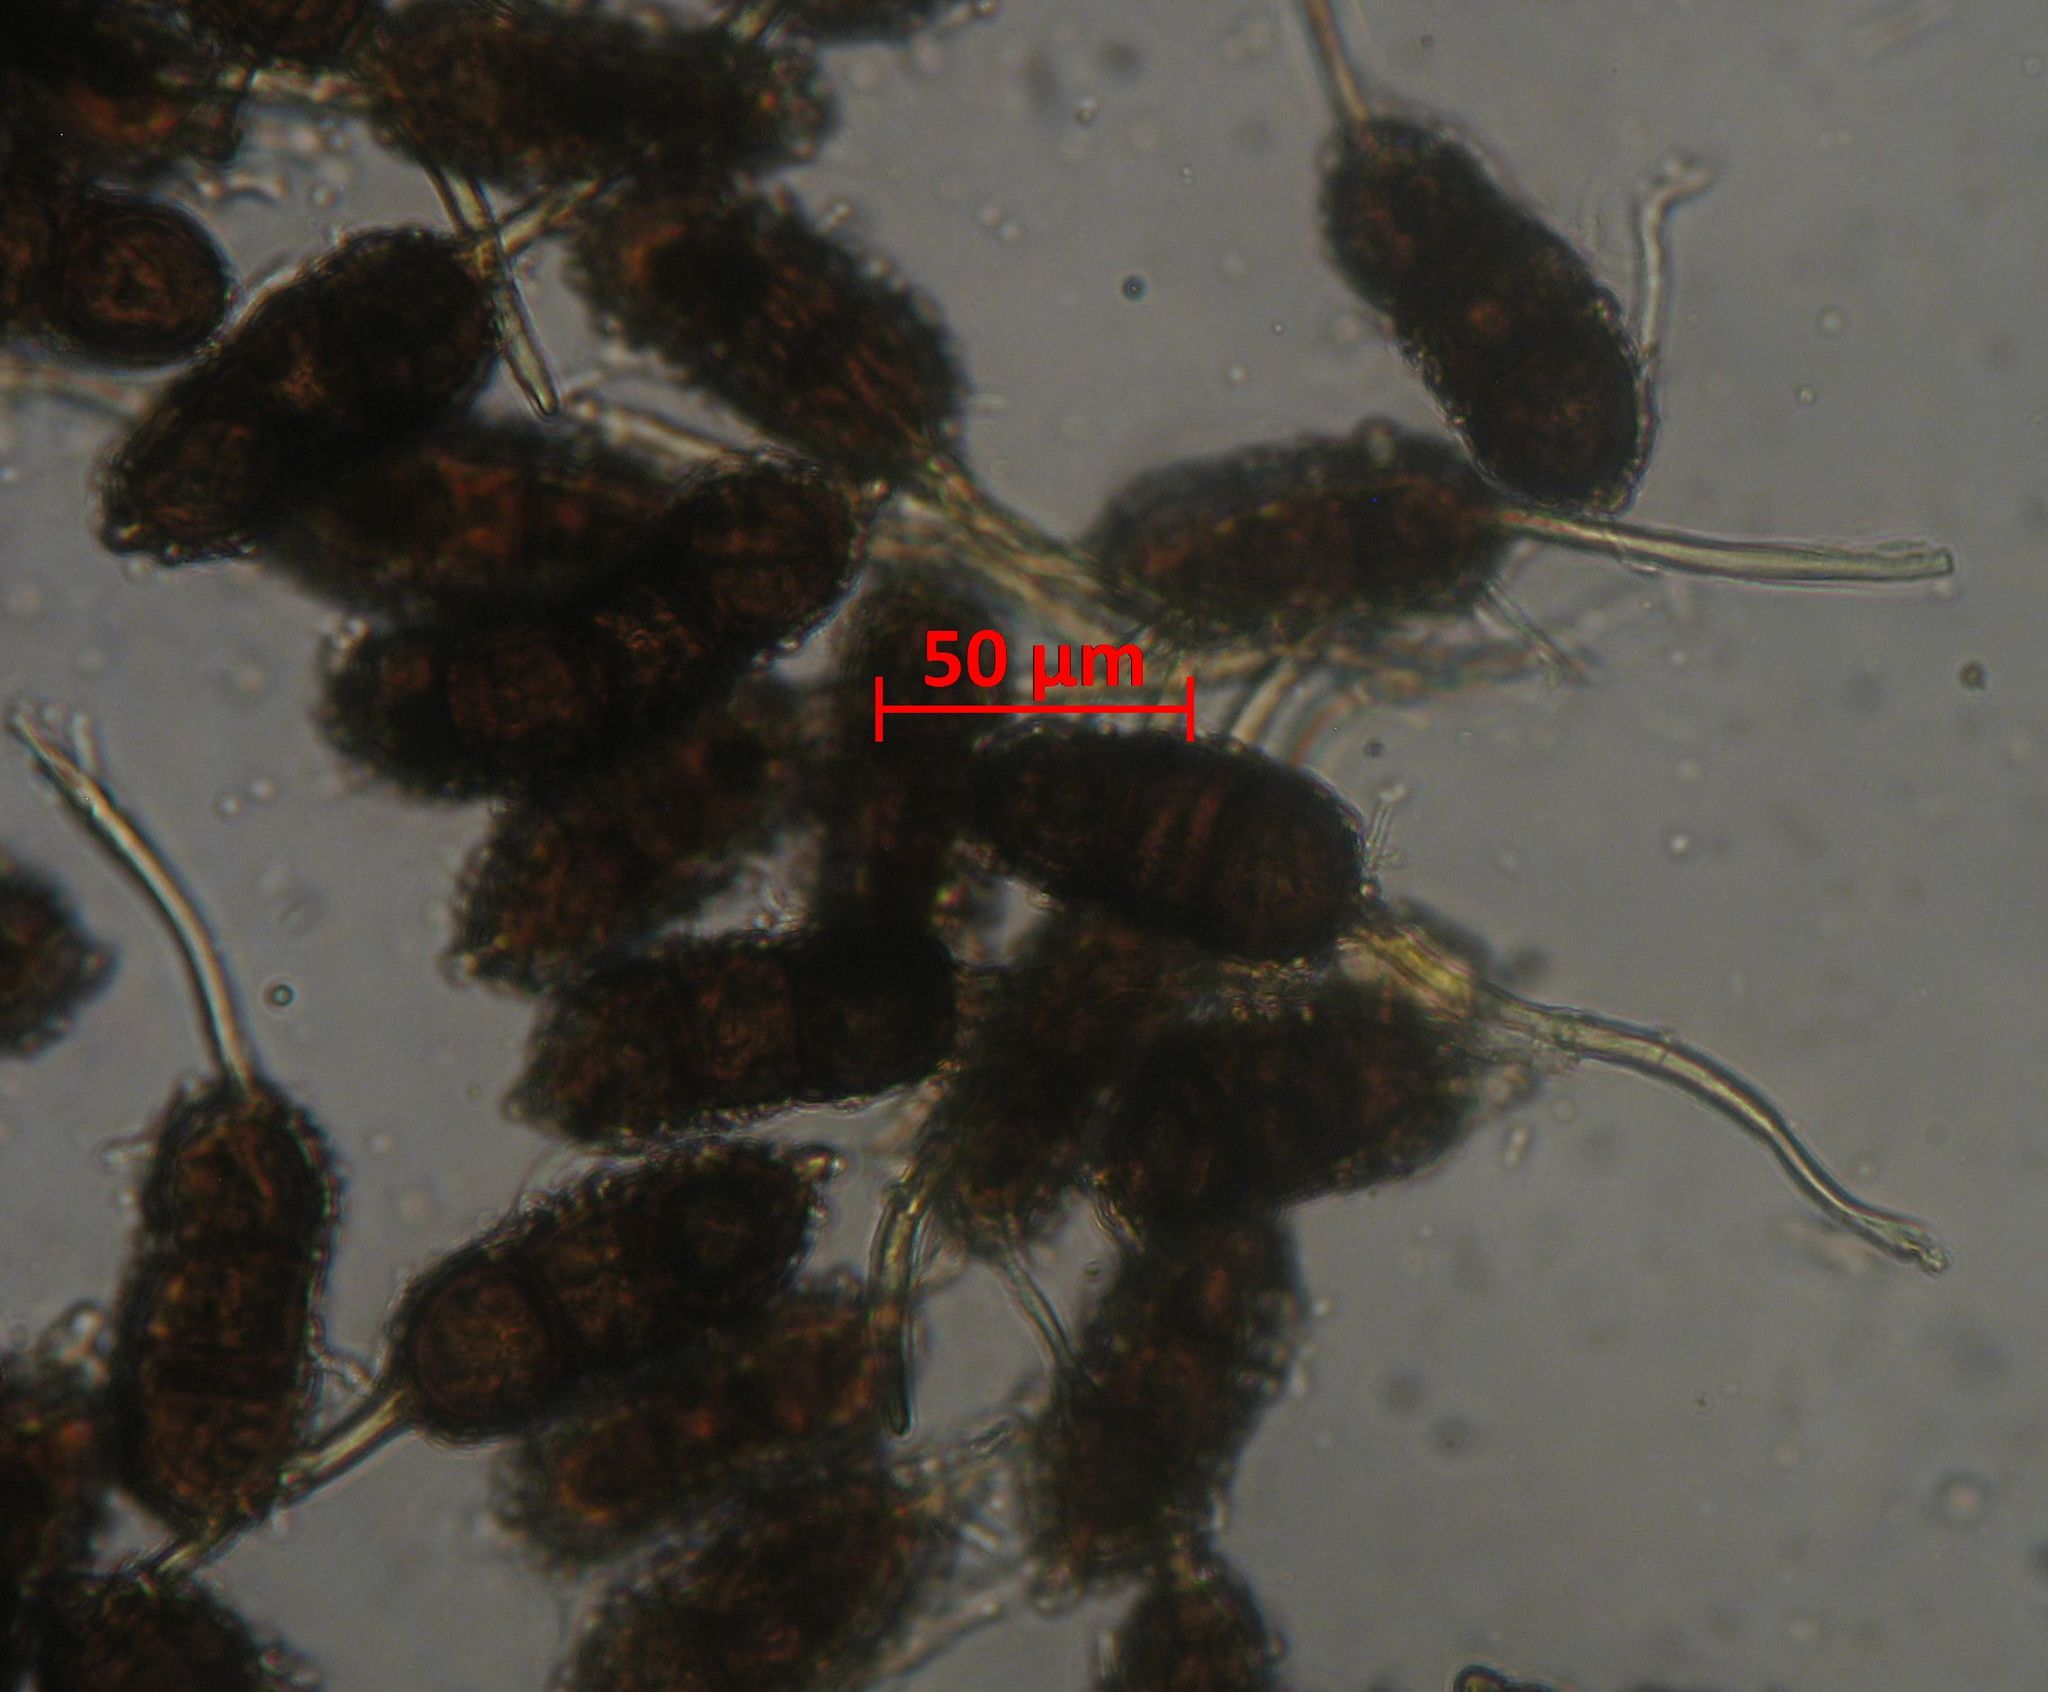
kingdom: Fungi
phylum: Basidiomycota
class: Pucciniomycetes
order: Pucciniales
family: Phragmidiaceae
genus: Phragmidium
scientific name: Phragmidium violaceum
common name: Violet bramble rust
